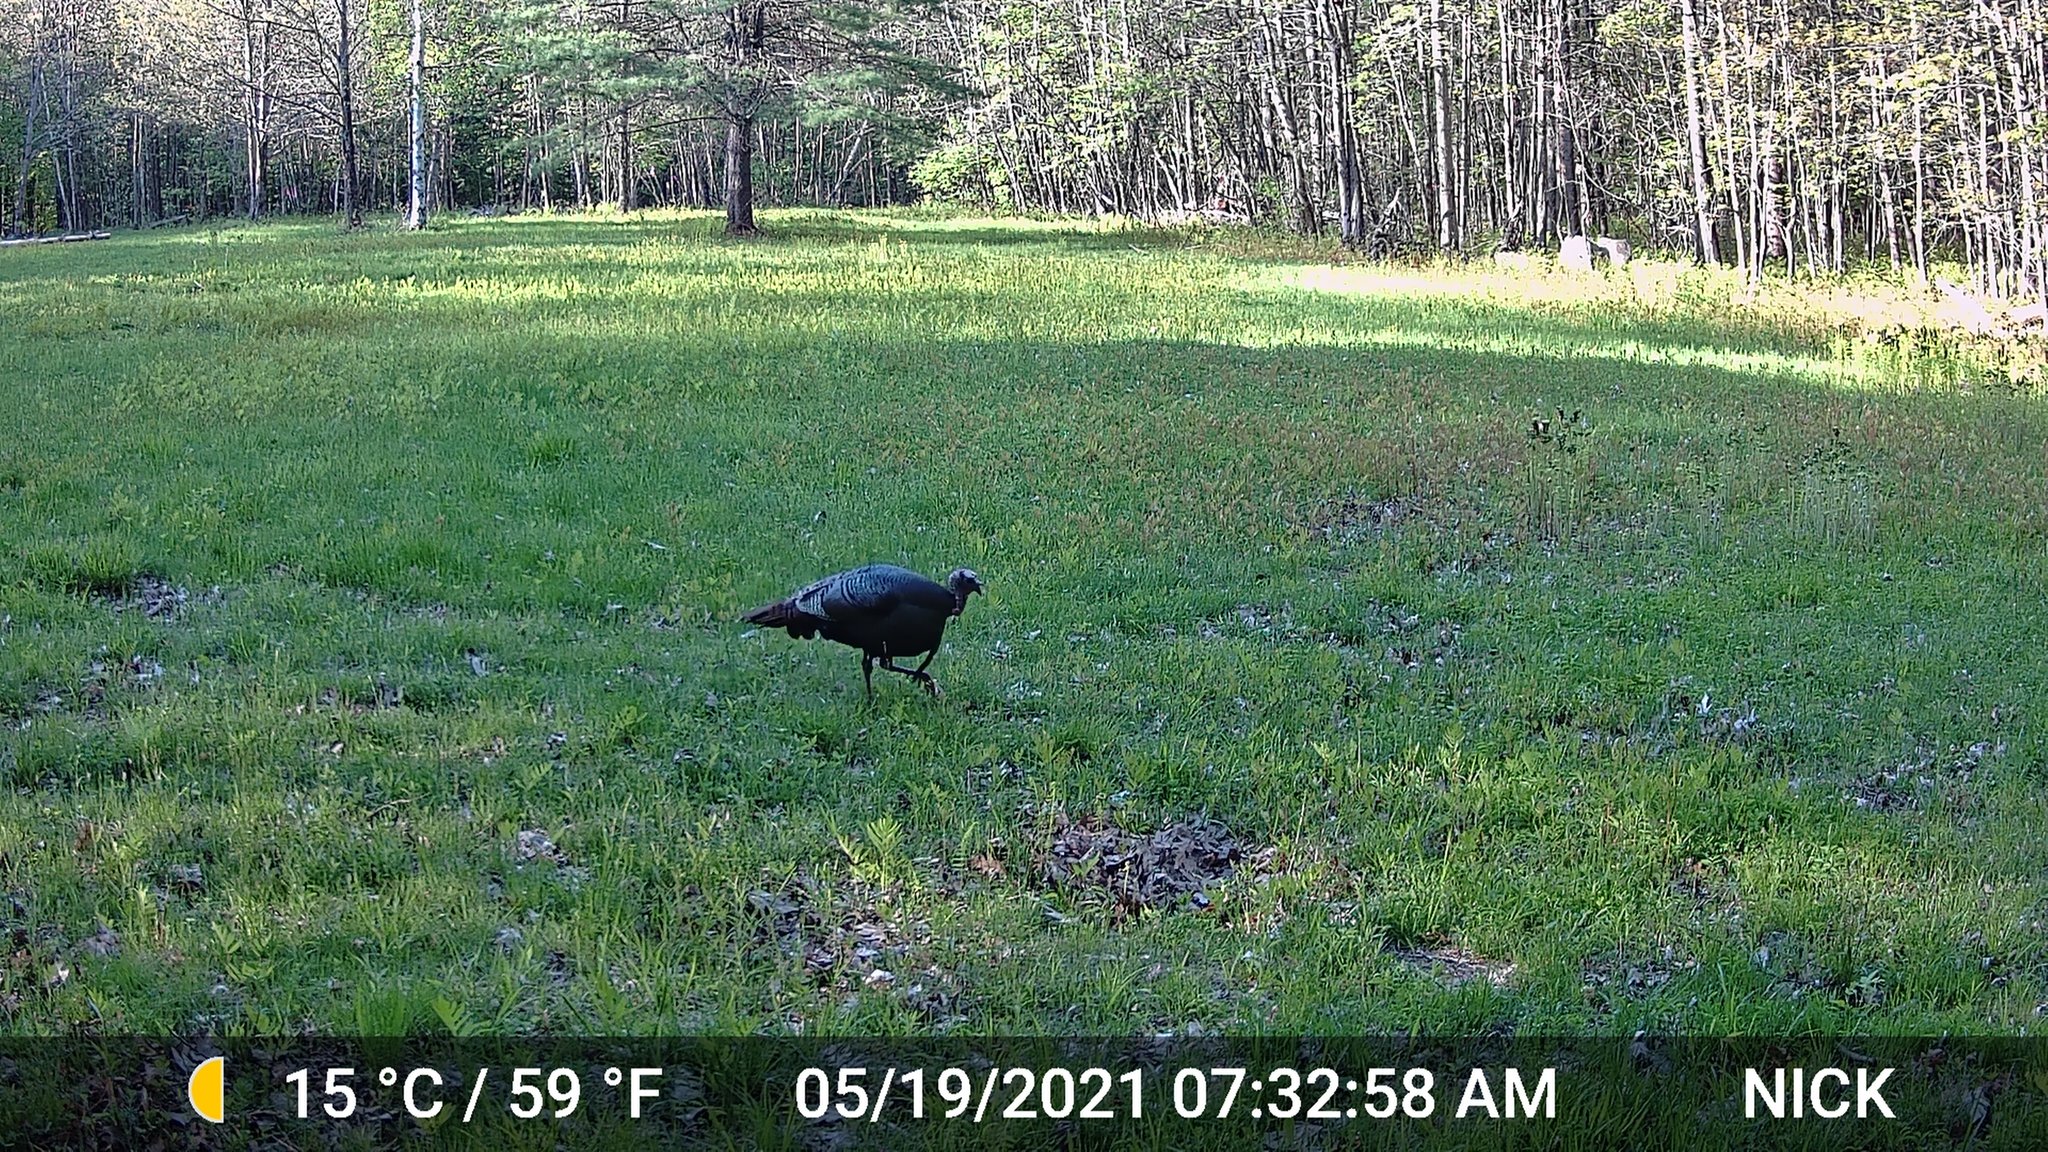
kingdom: Animalia
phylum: Chordata
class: Aves
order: Galliformes
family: Phasianidae
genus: Meleagris
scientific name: Meleagris gallopavo
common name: Wild turkey
